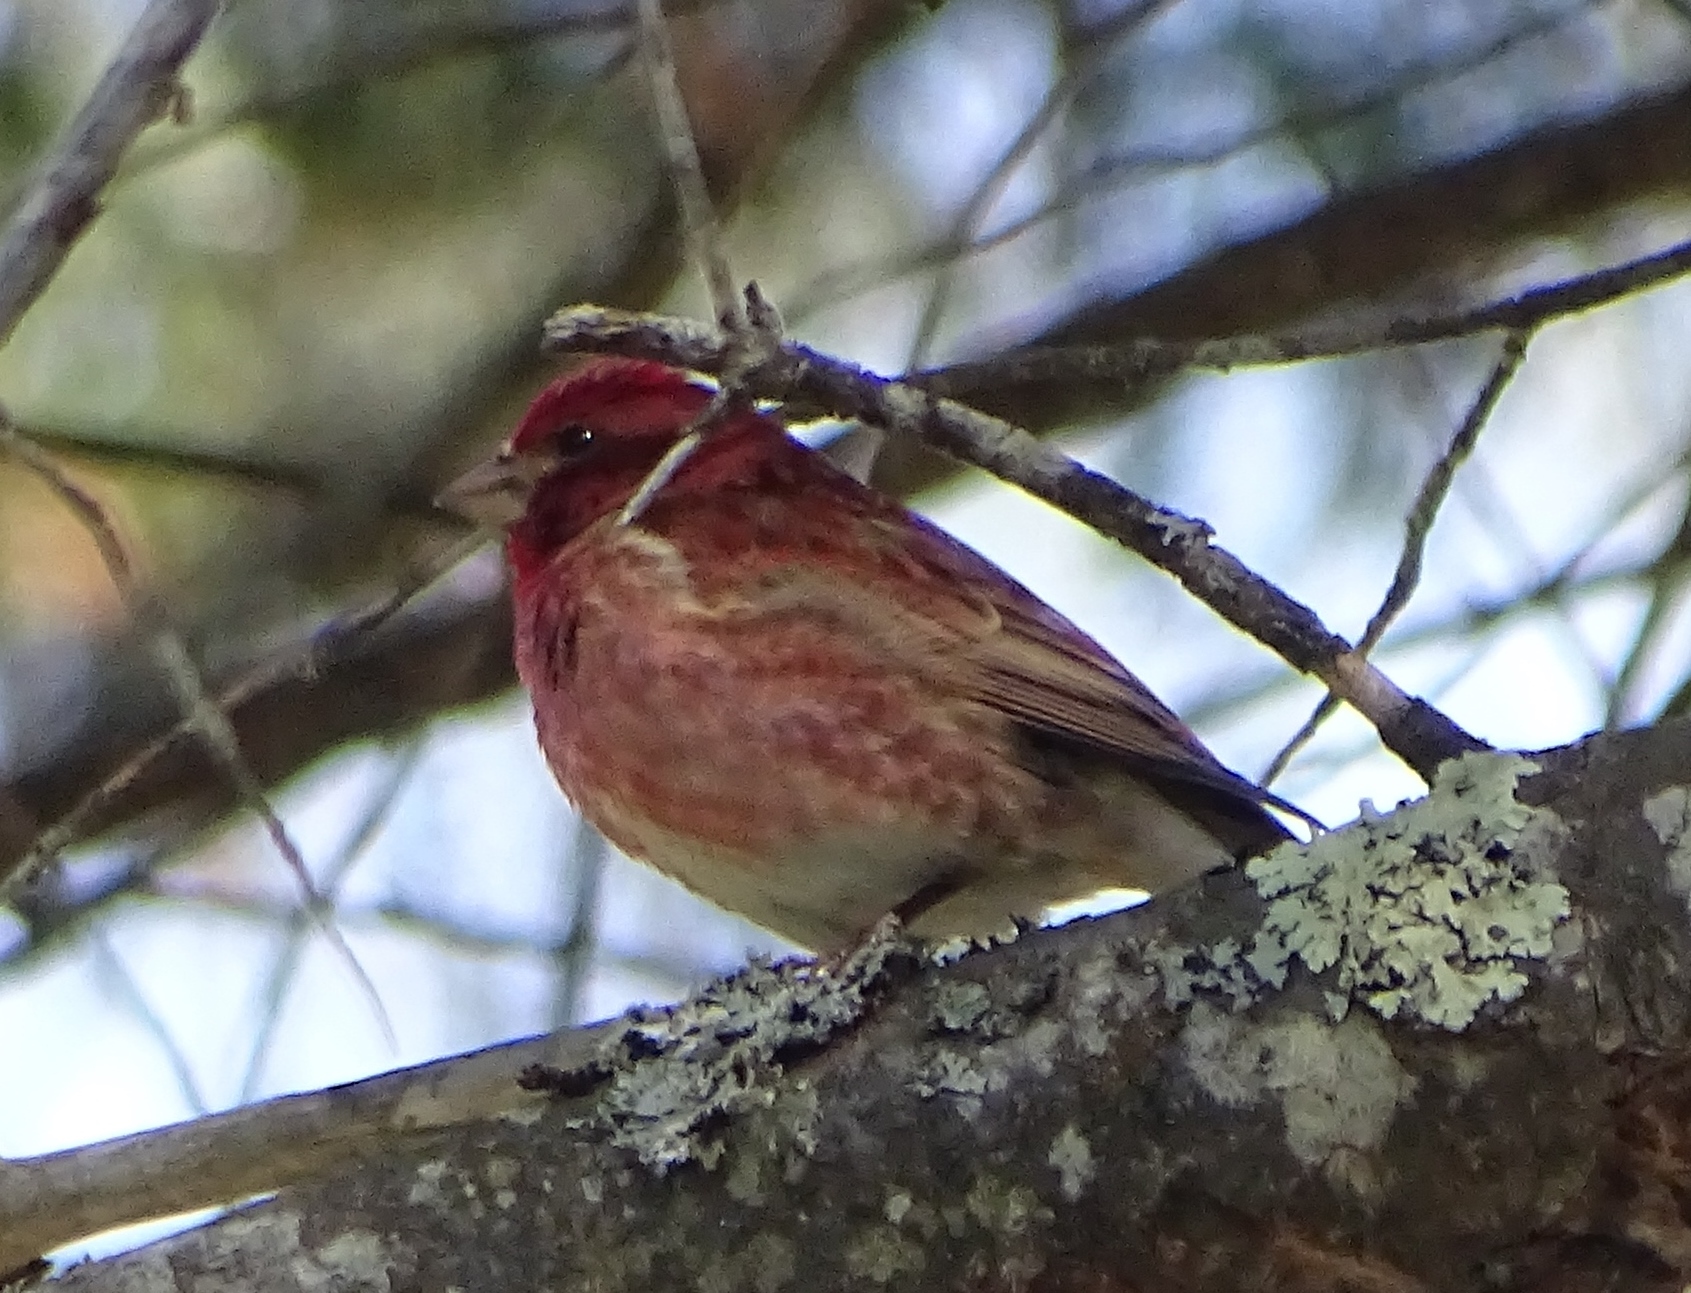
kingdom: Animalia
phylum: Chordata
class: Aves
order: Passeriformes
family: Fringillidae
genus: Haemorhous
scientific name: Haemorhous purpureus
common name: Purple finch
